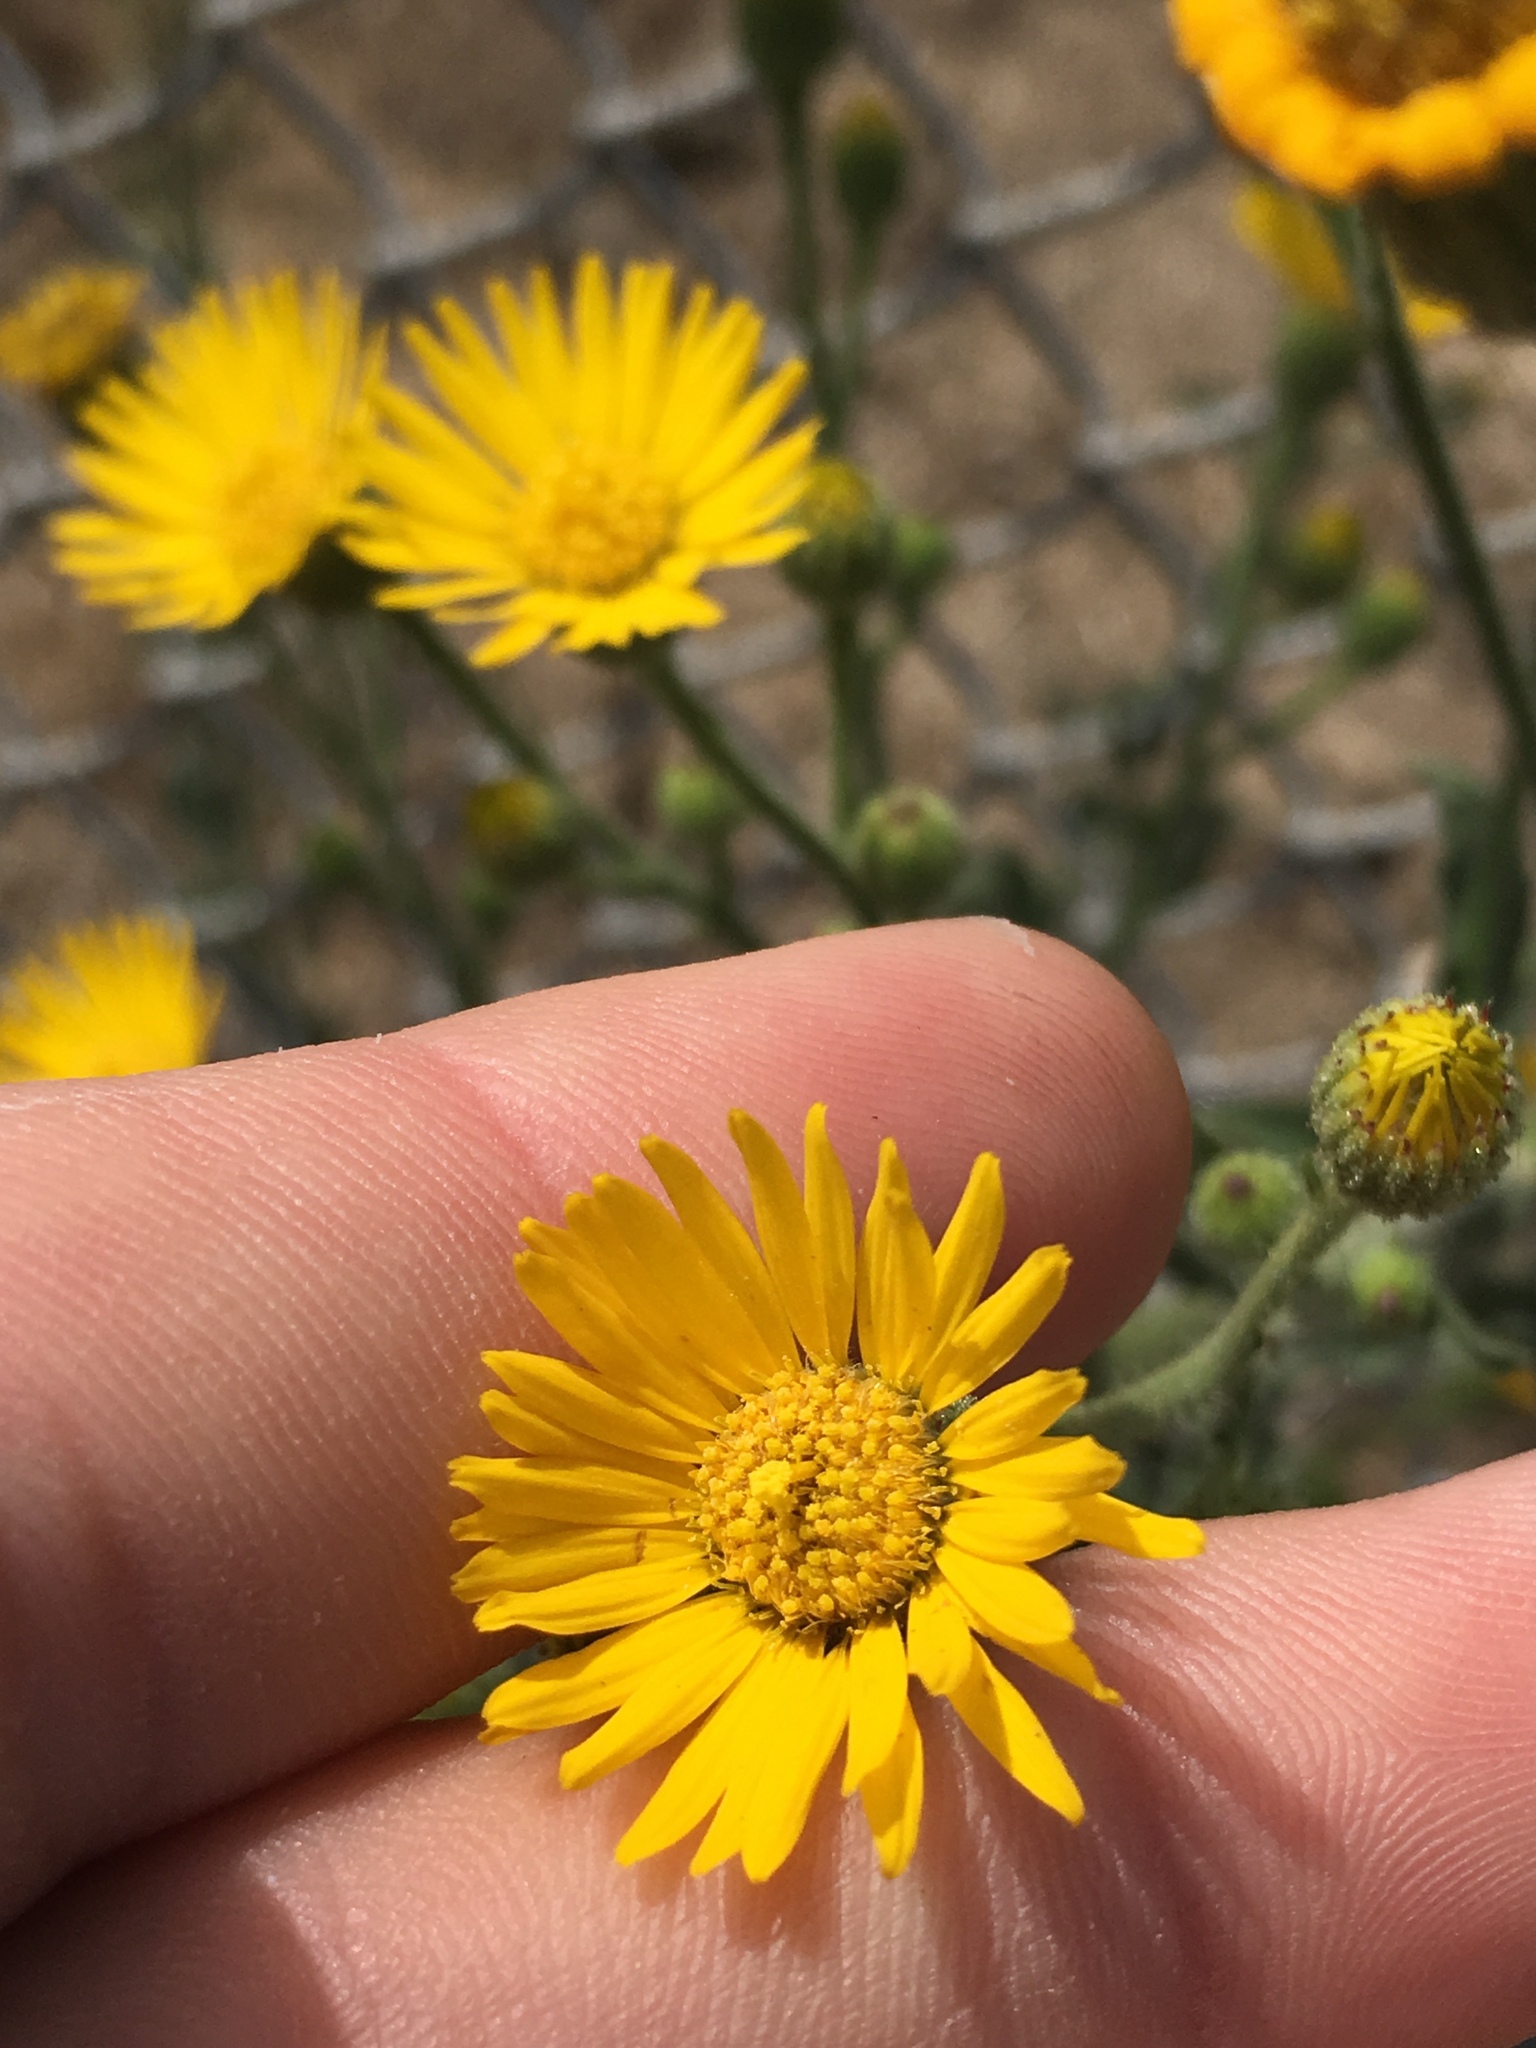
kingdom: Plantae
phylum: Tracheophyta
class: Magnoliopsida
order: Asterales
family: Asteraceae
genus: Heterotheca
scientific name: Heterotheca grandiflora
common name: Telegraphweed
